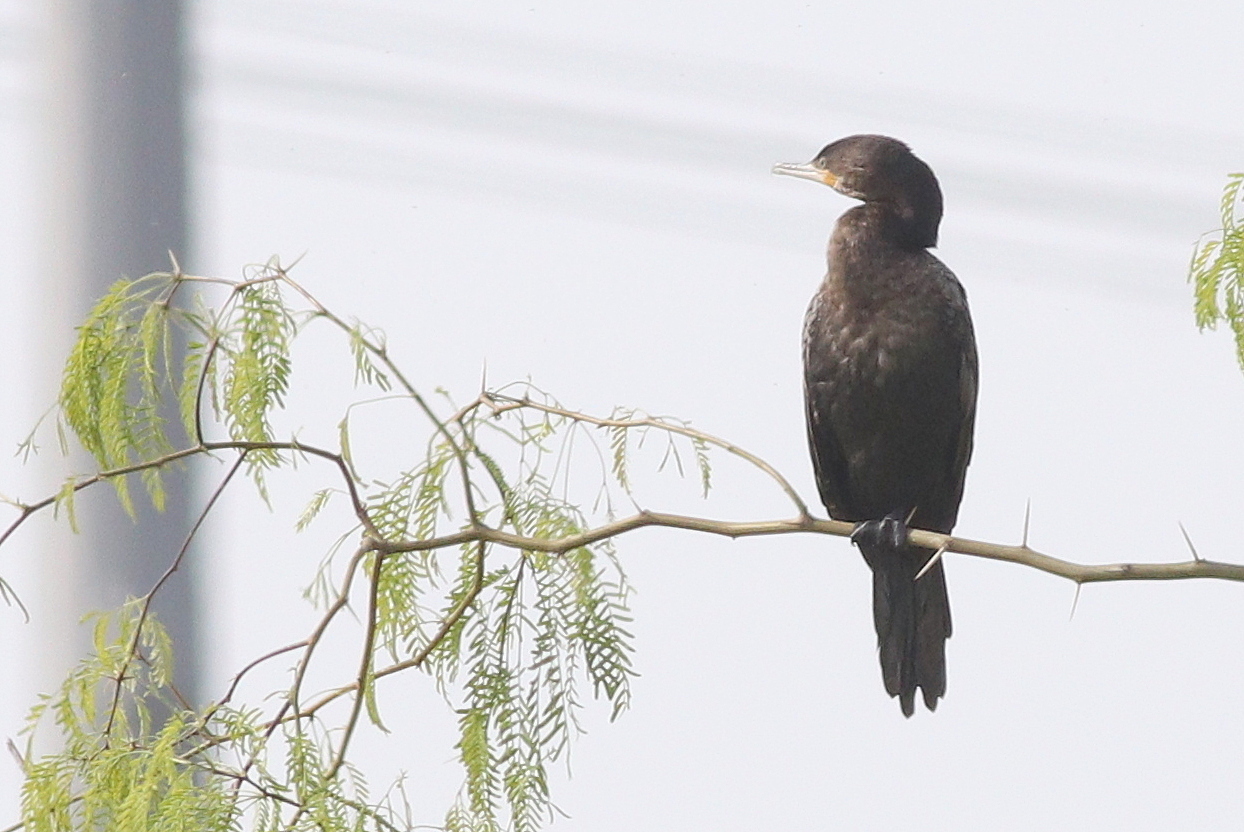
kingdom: Animalia
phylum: Chordata
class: Aves
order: Suliformes
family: Phalacrocoracidae
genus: Phalacrocorax
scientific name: Phalacrocorax brasilianus
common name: Neotropic cormorant
